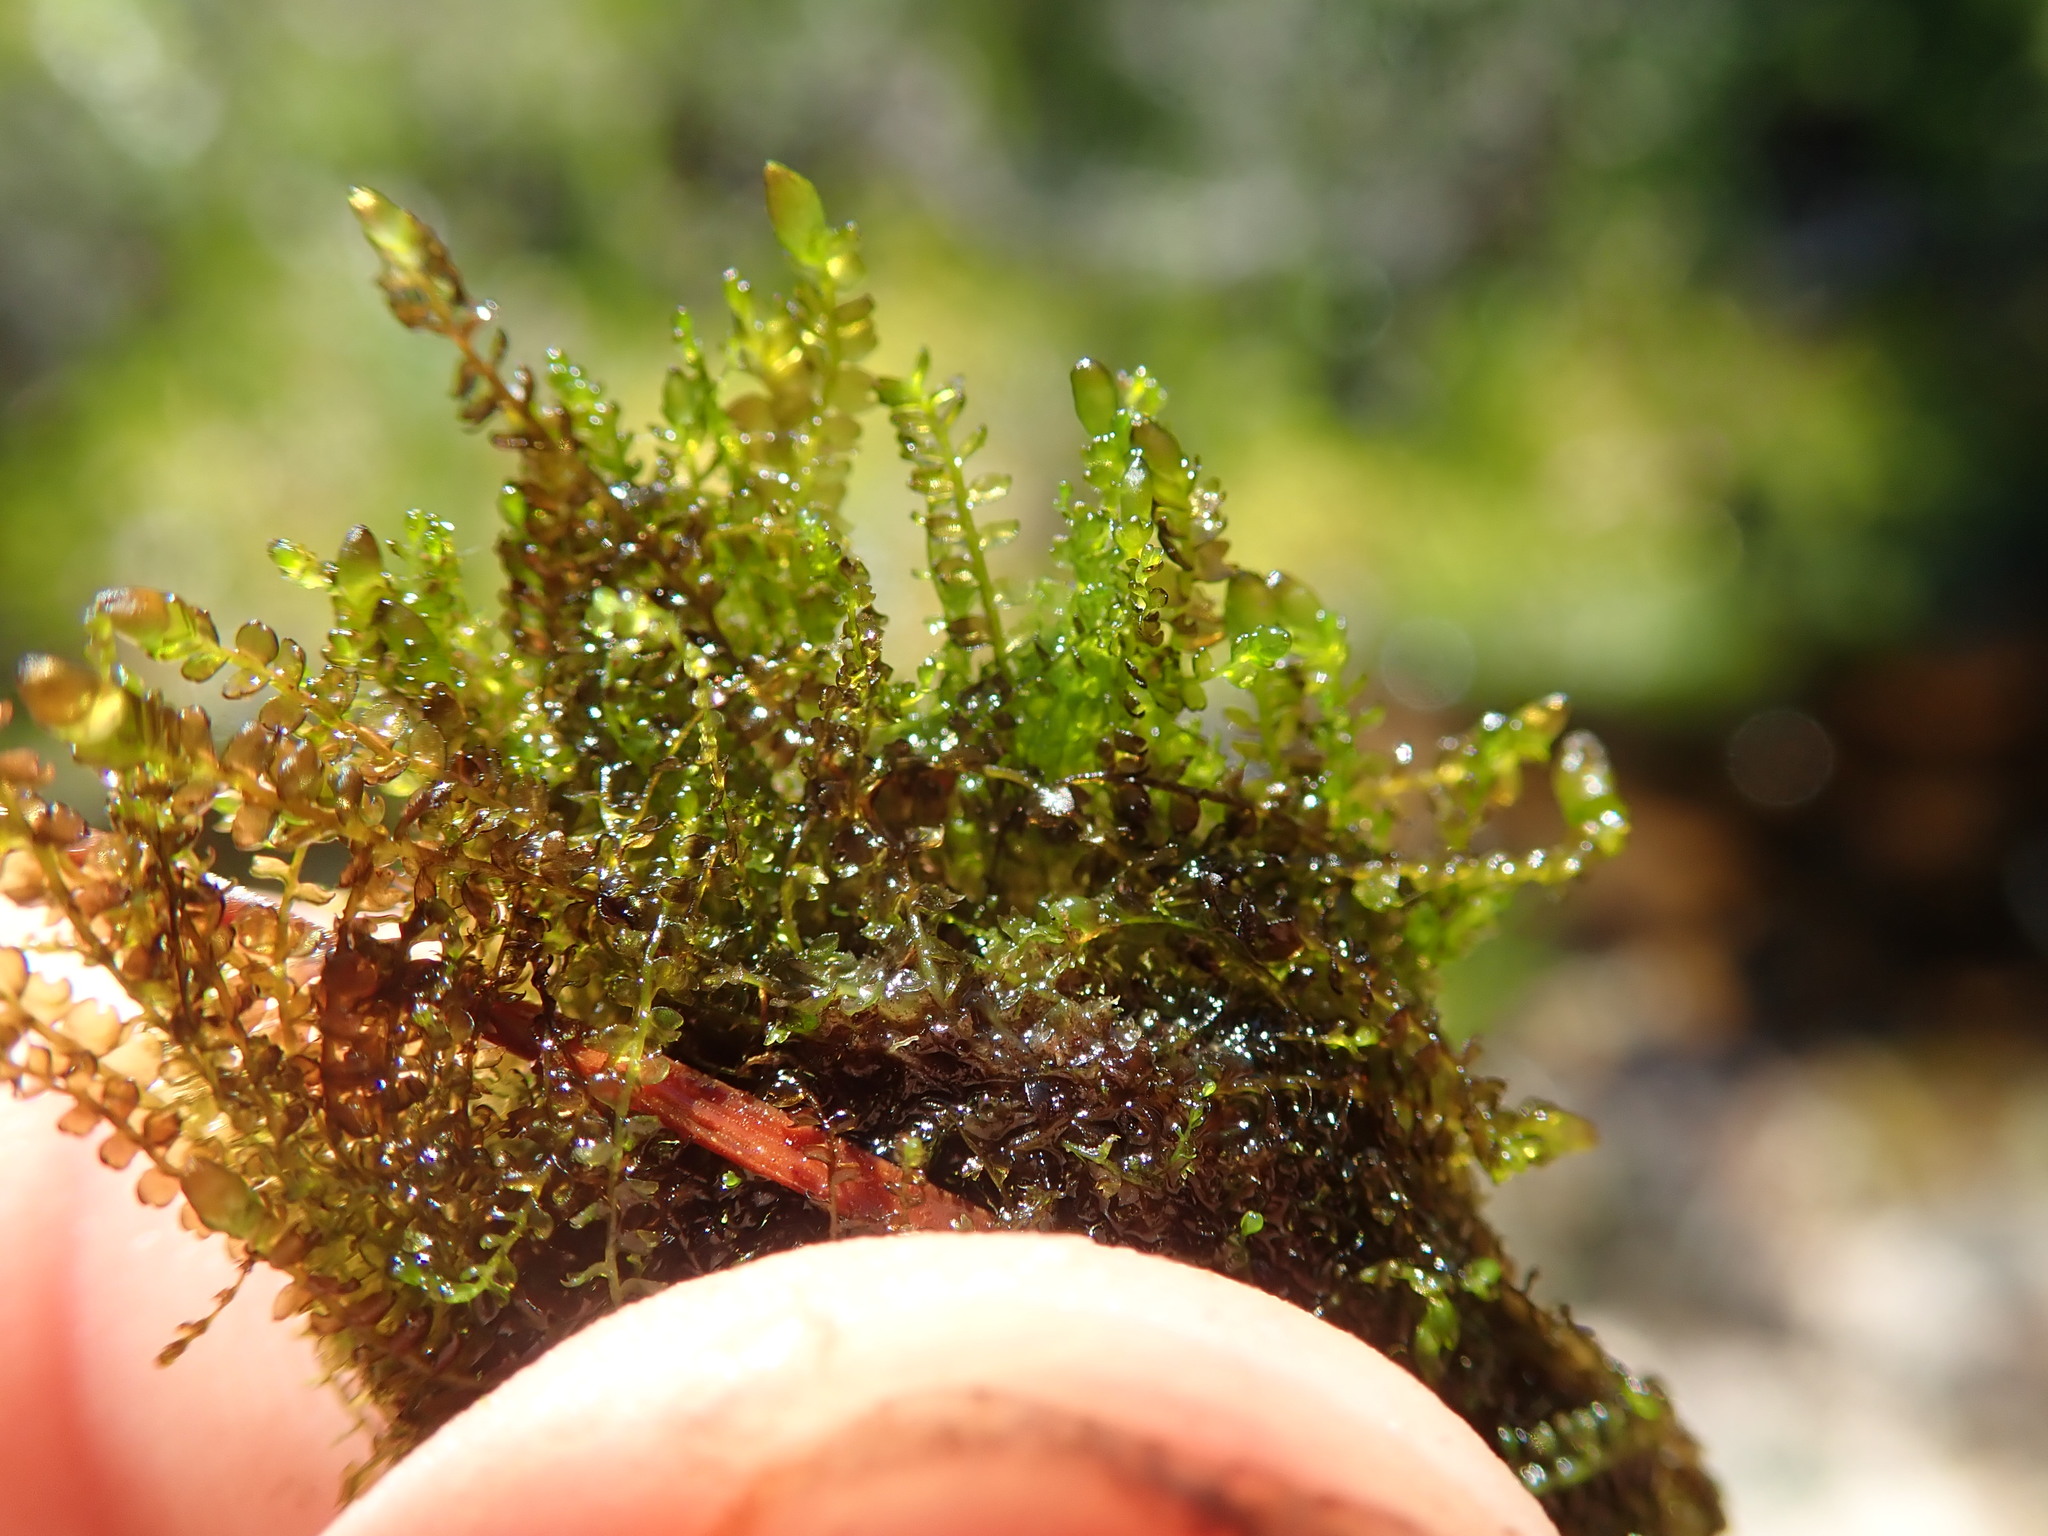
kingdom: Plantae
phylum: Marchantiophyta
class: Jungermanniopsida
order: Jungermanniales
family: Anastrophyllaceae
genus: Gymnocolea
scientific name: Gymnocolea inflata
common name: Inflated notchwort
